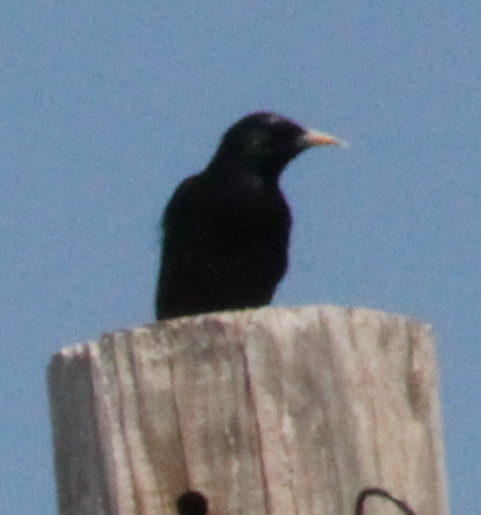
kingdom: Animalia
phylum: Chordata
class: Aves
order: Passeriformes
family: Sturnidae
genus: Sturnus
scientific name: Sturnus vulgaris
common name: Common starling
